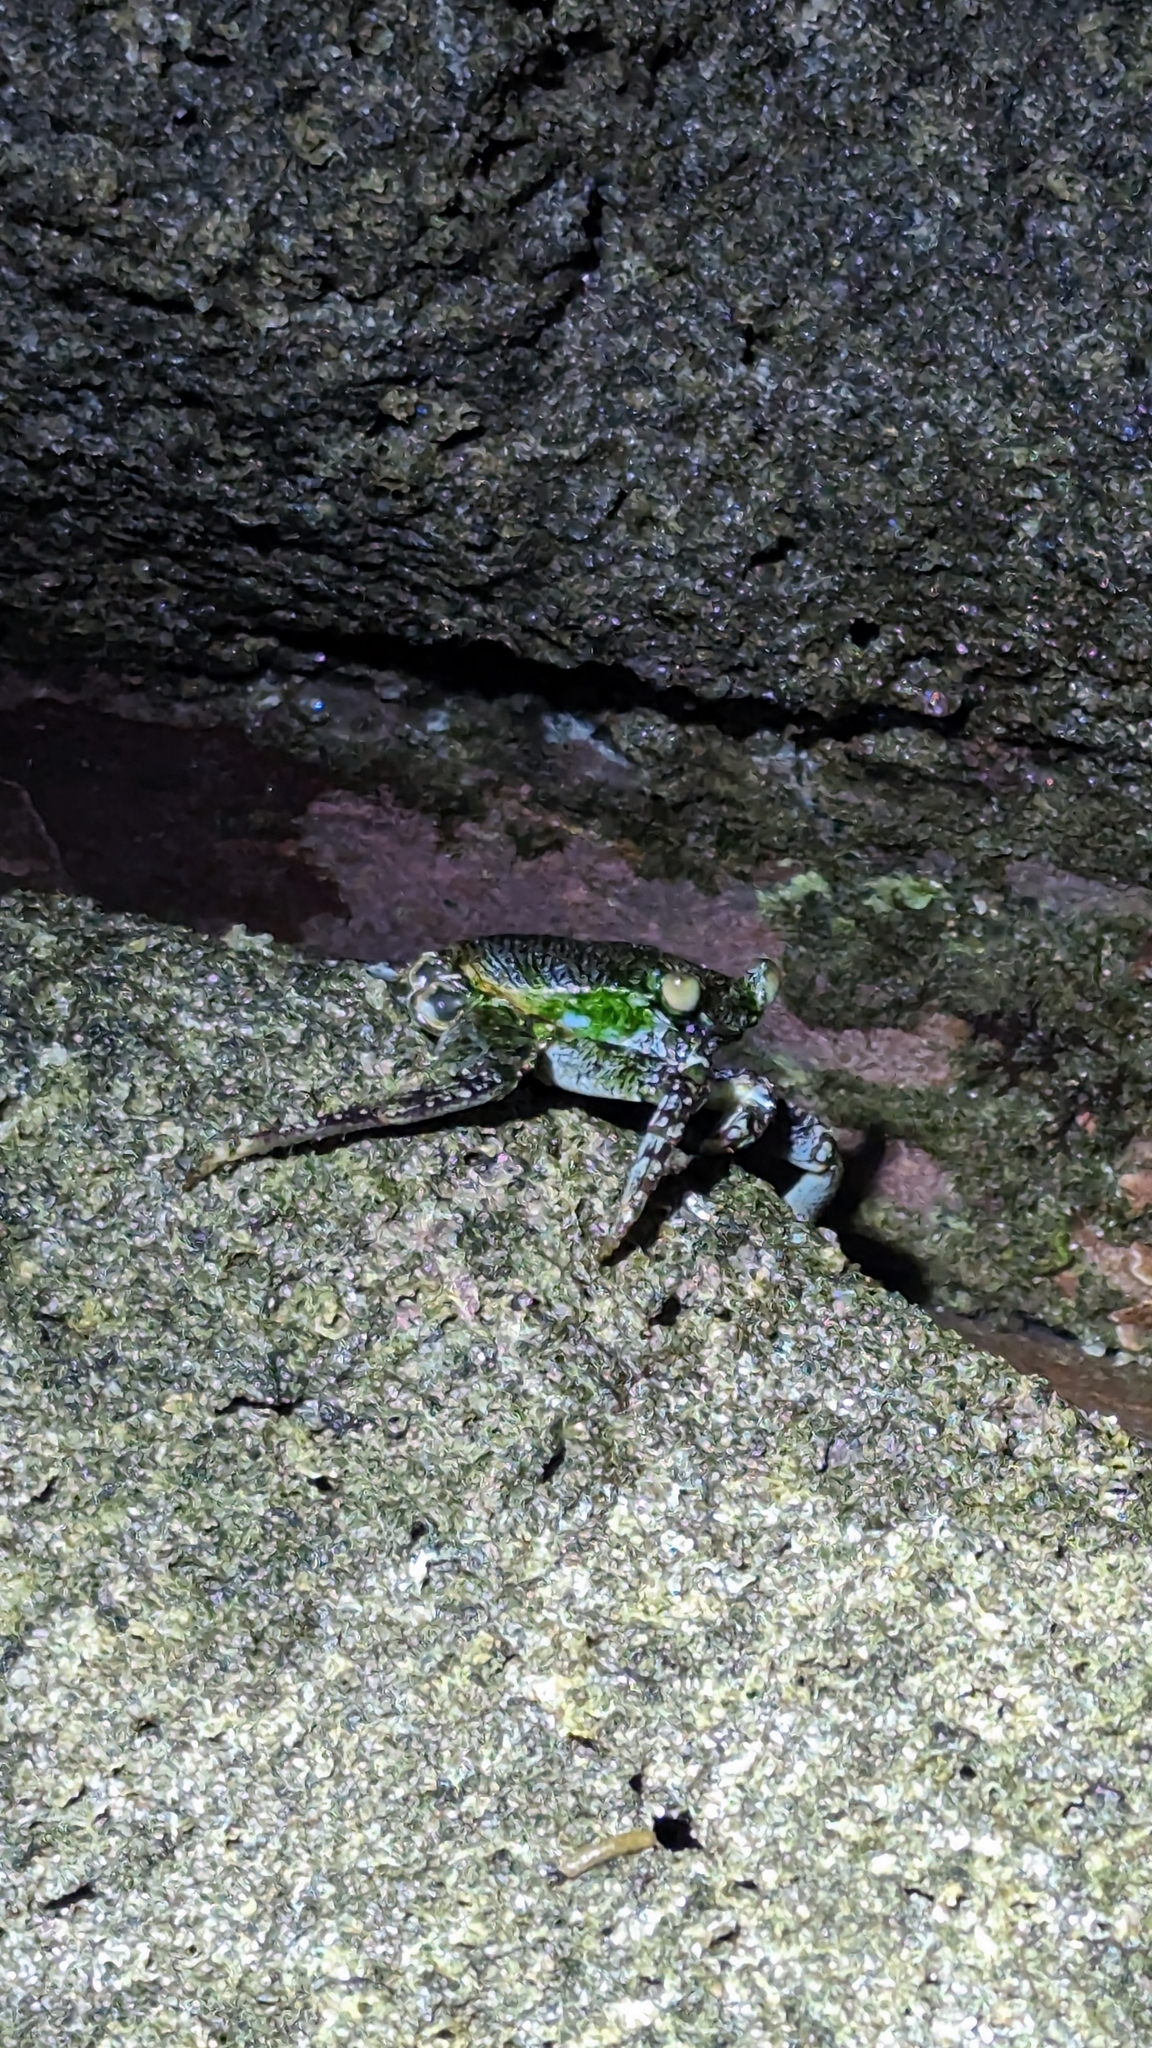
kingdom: Animalia
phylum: Arthropoda
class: Malacostraca
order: Decapoda
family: Grapsidae
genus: Grapsus
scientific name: Grapsus grapsus
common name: Sally lightfoot
